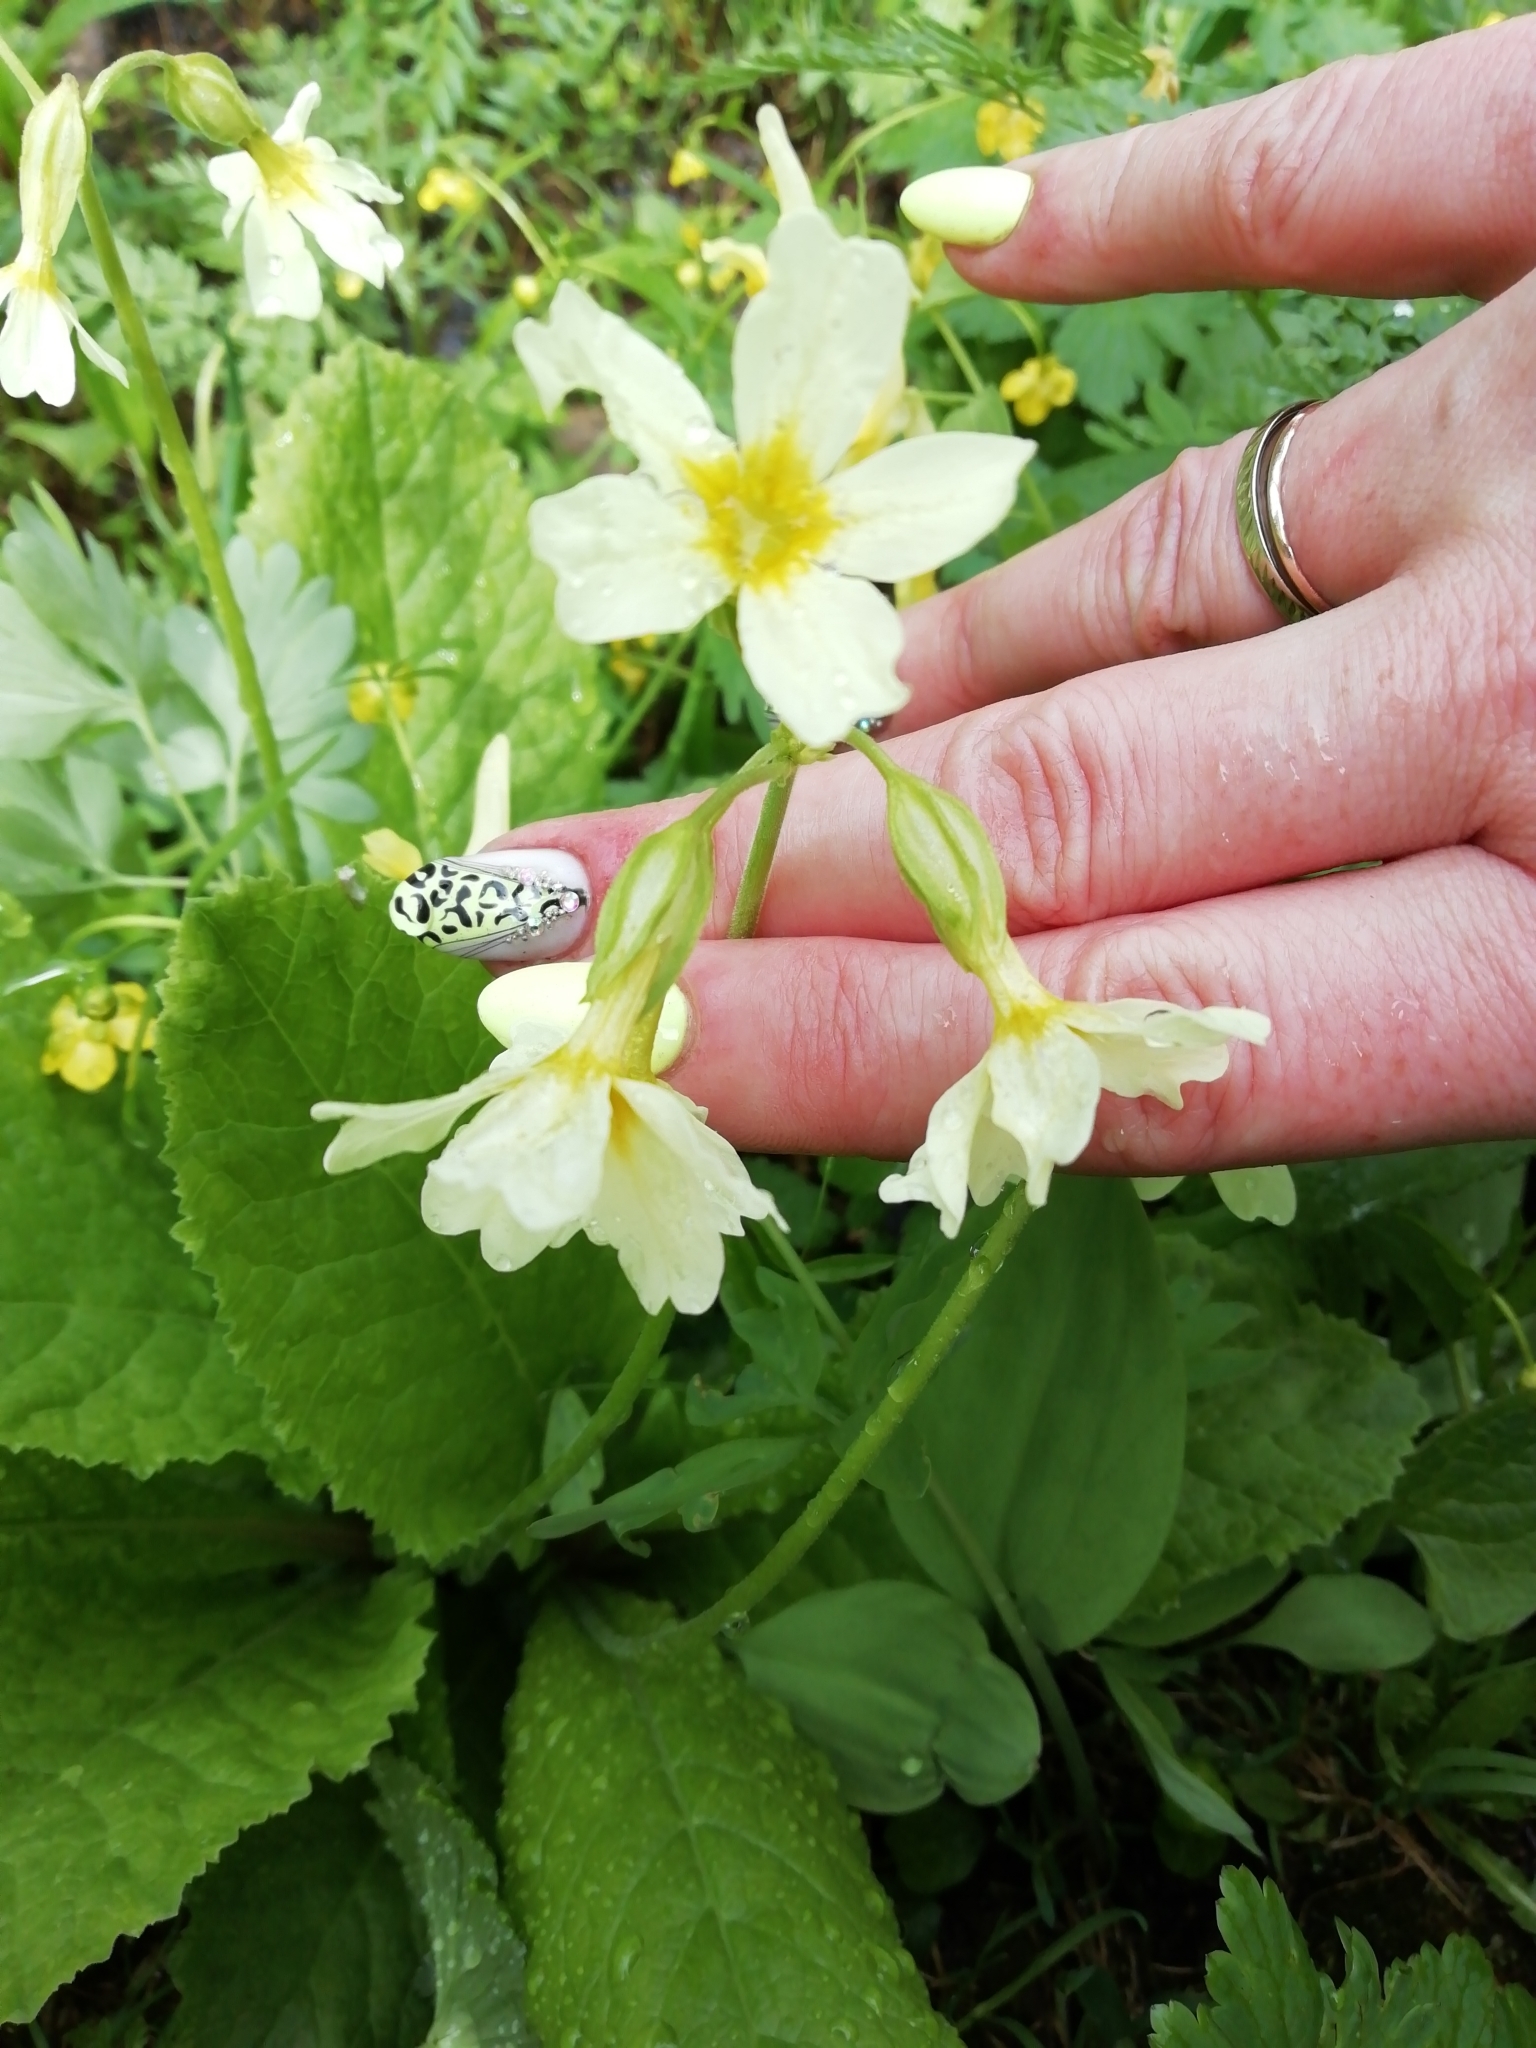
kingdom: Plantae
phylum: Tracheophyta
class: Magnoliopsida
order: Ericales
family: Primulaceae
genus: Primula
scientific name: Primula elatior
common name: Oxlip
